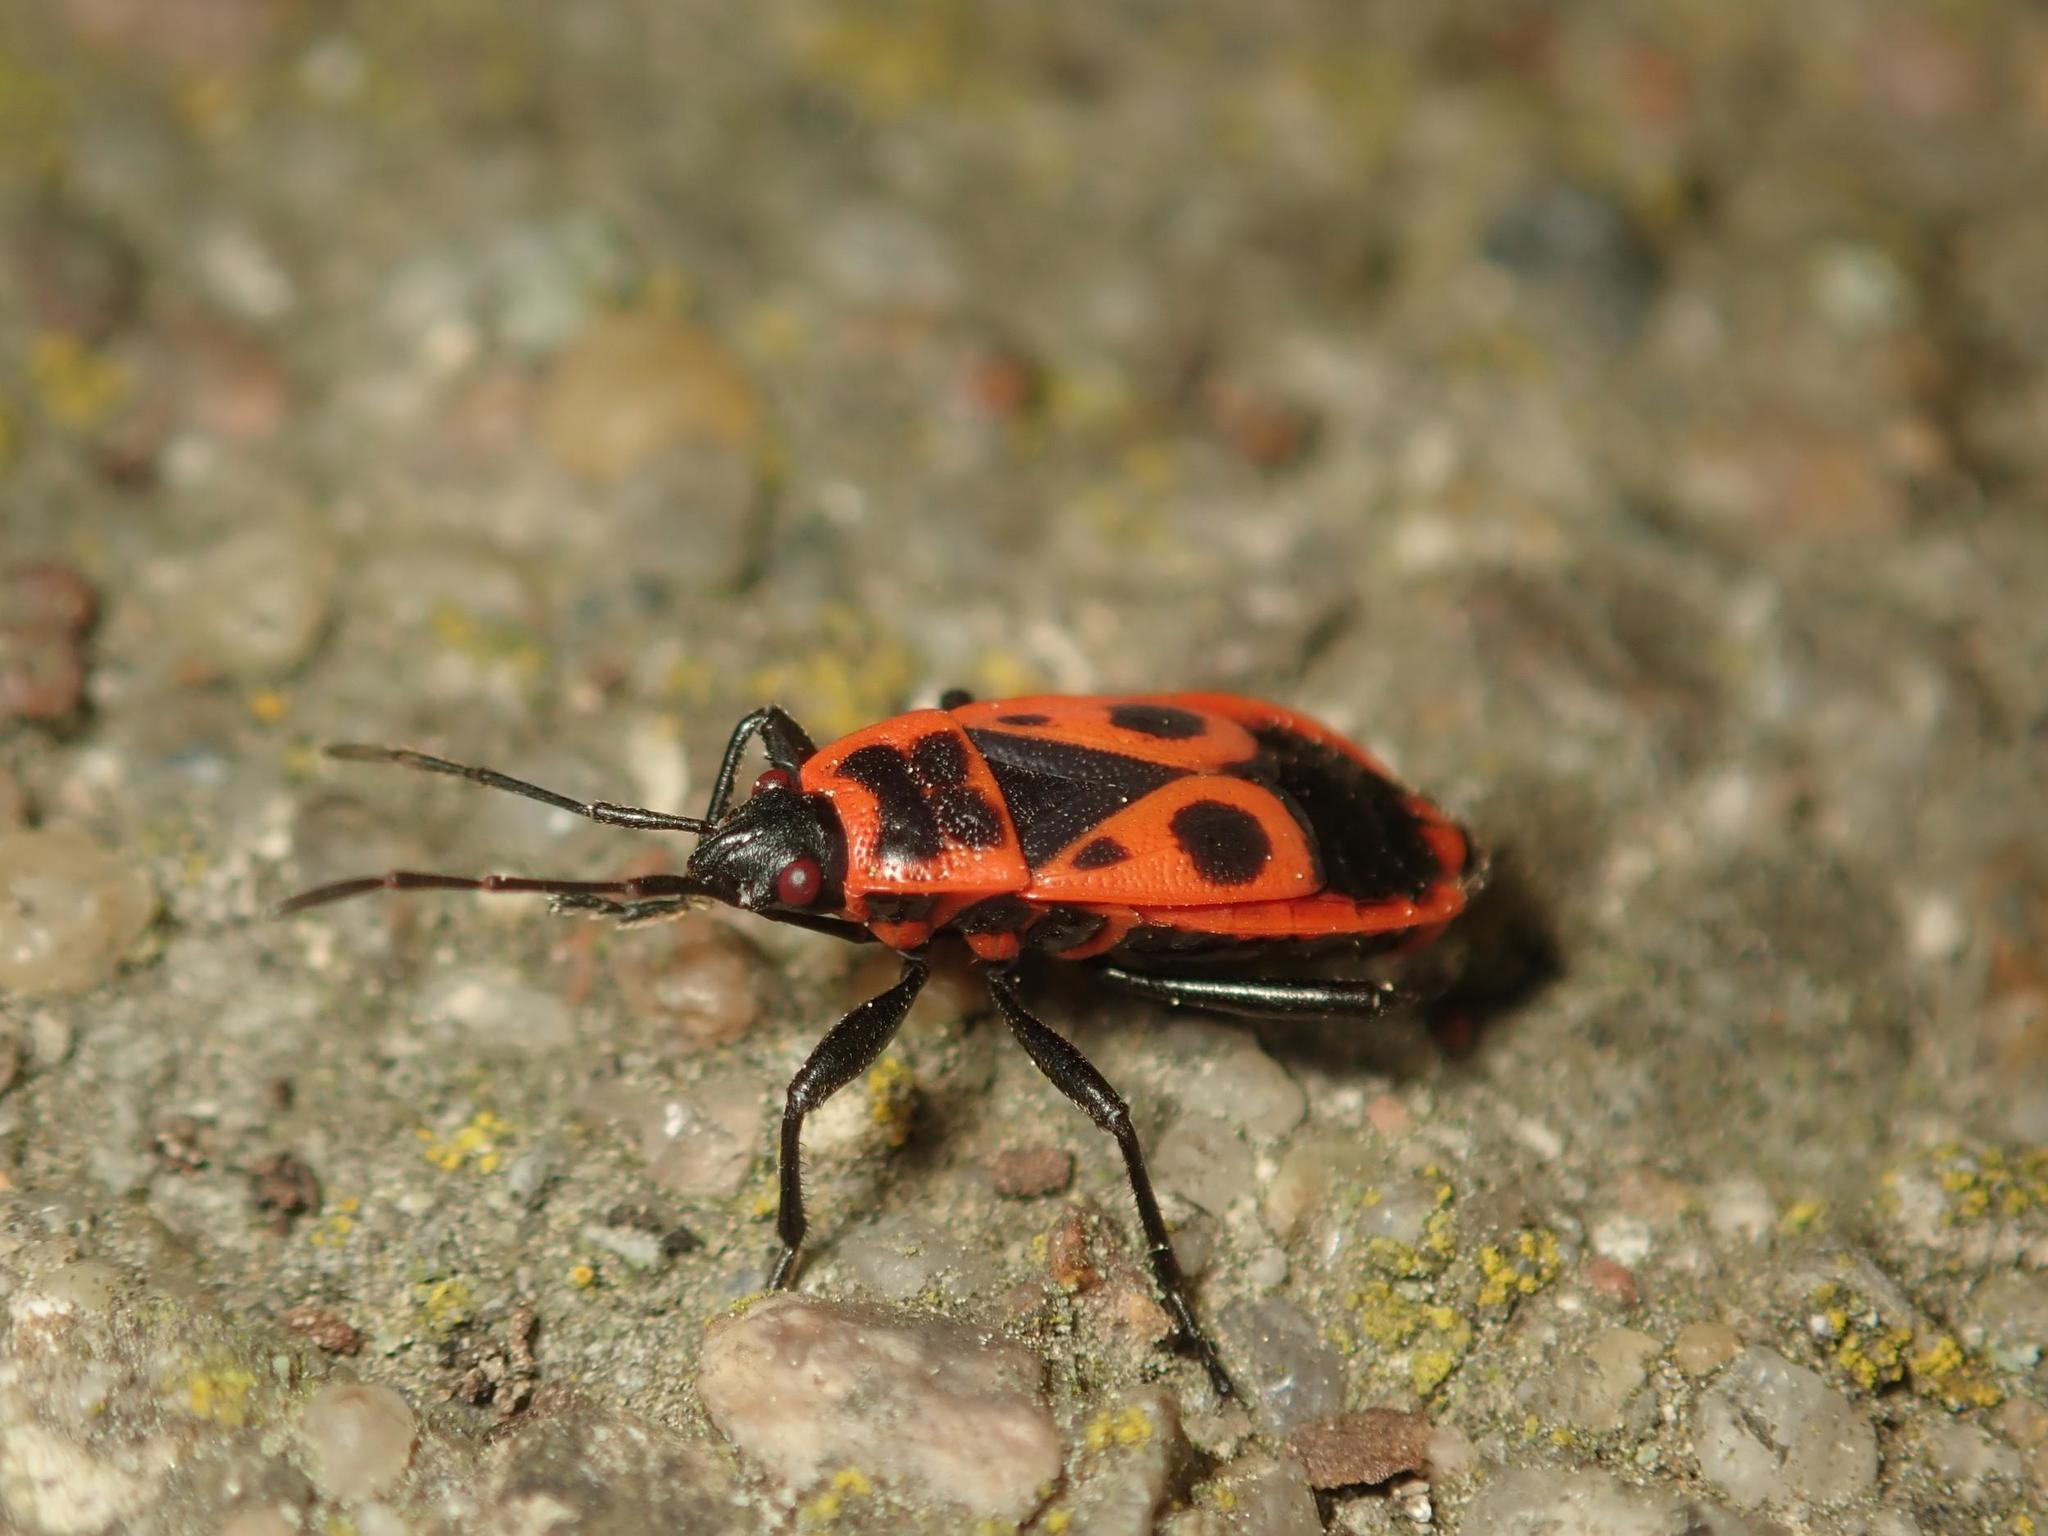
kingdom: Animalia
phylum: Arthropoda
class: Insecta
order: Hemiptera
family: Pyrrhocoridae
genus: Pyrrhocoris
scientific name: Pyrrhocoris apterus
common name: Firebug
